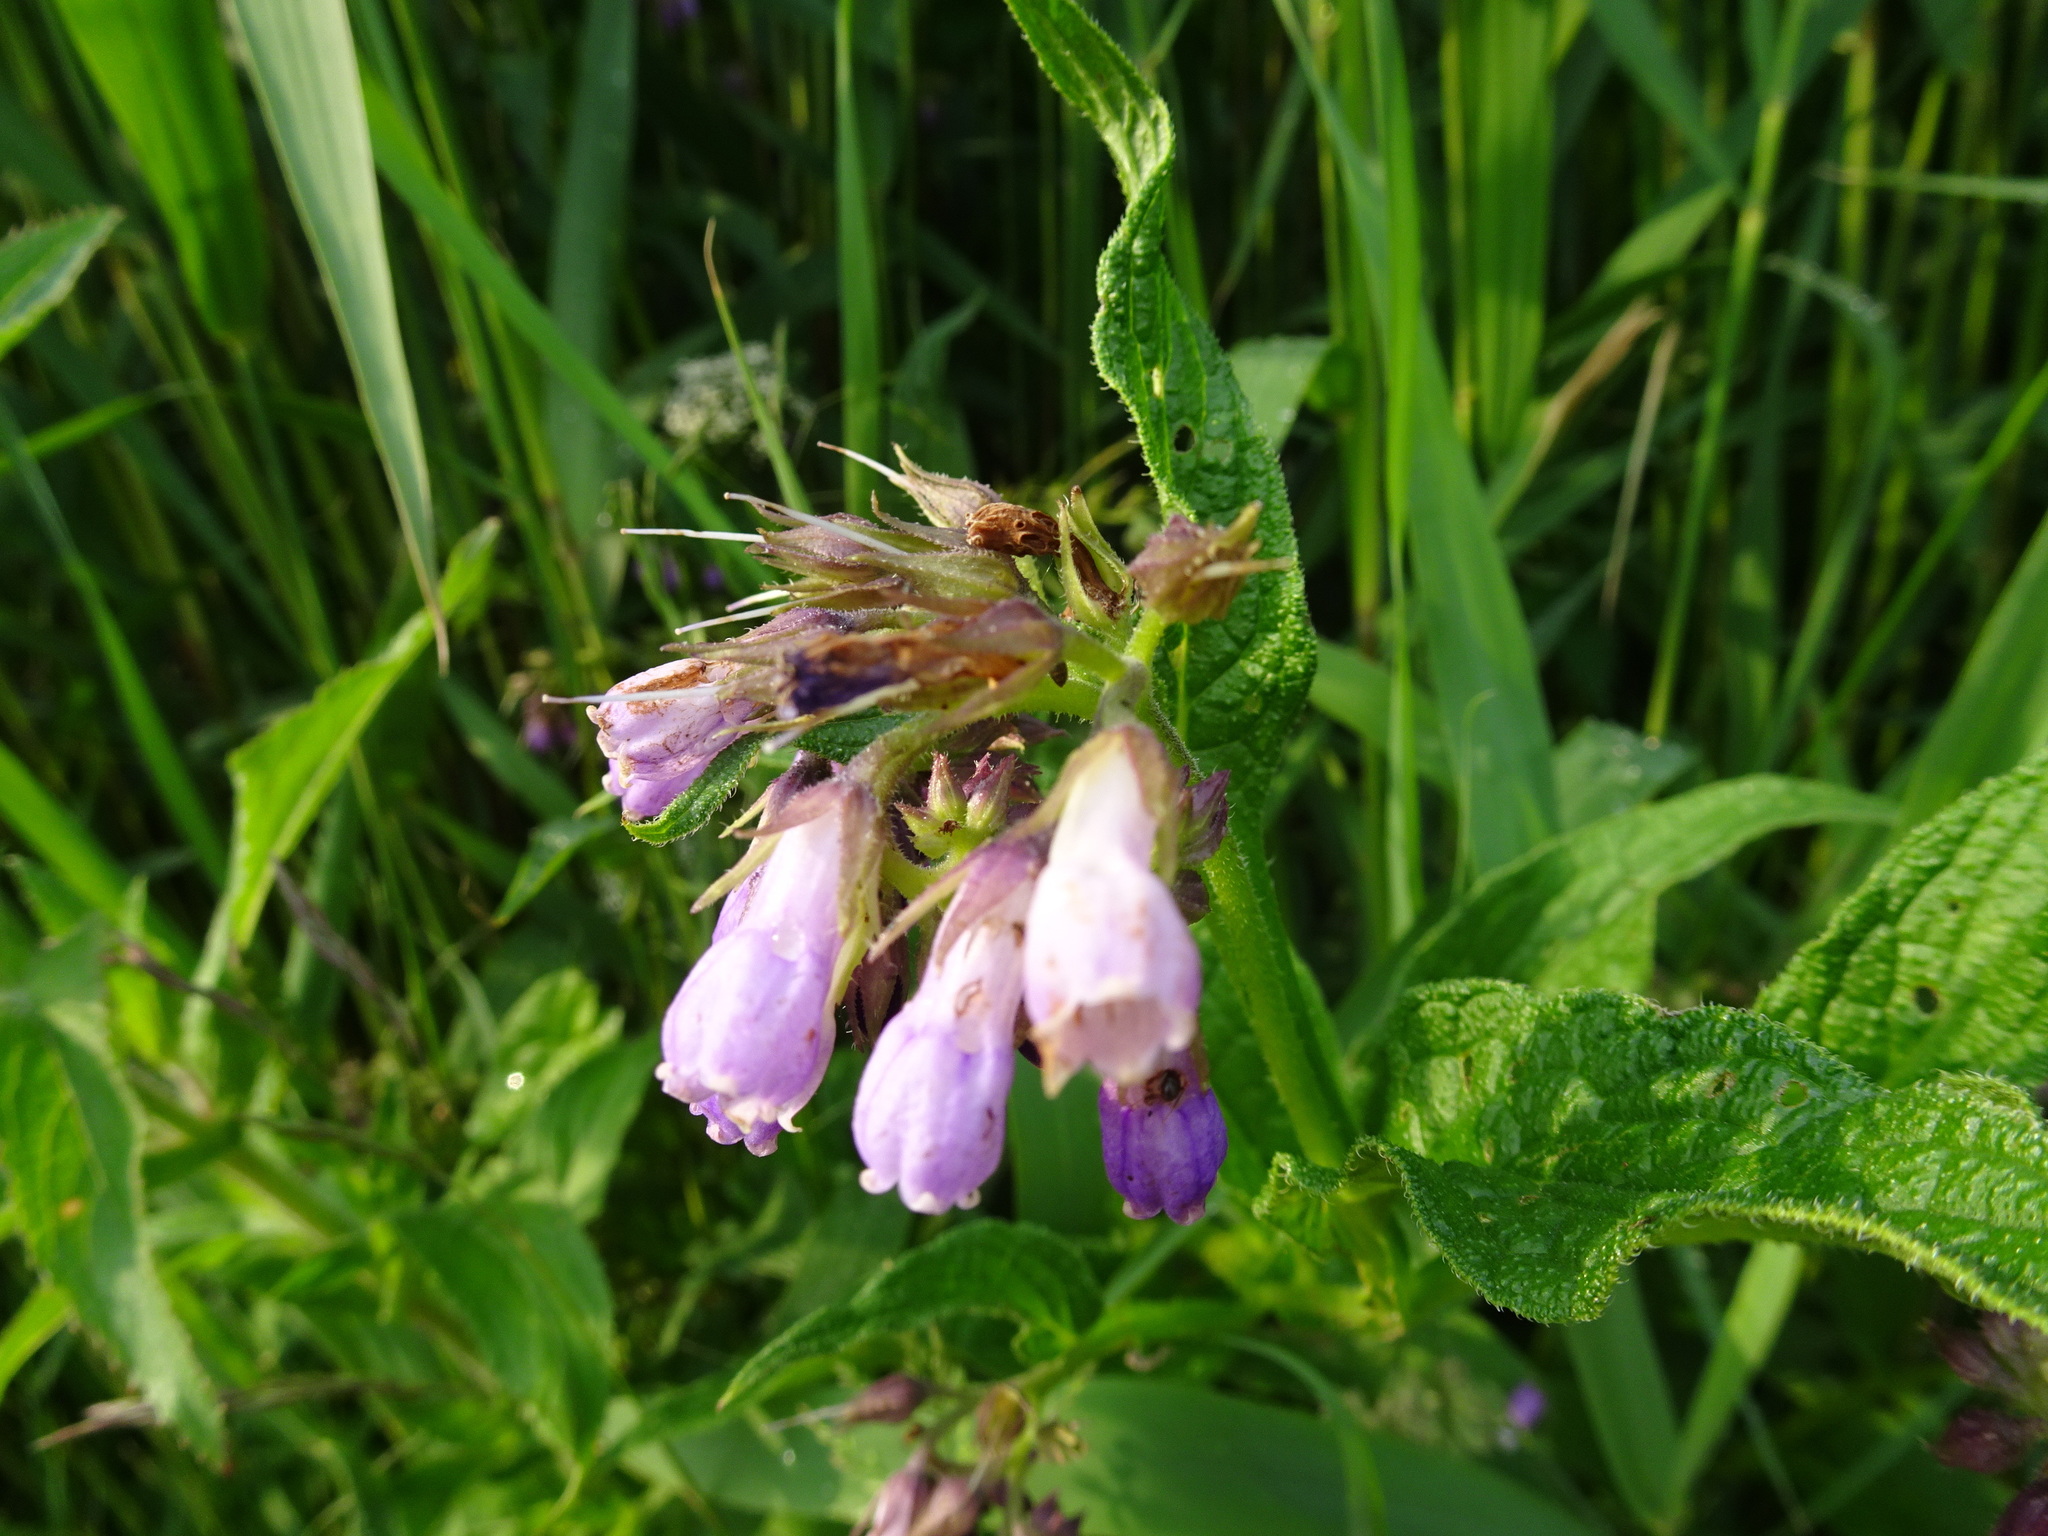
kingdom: Plantae
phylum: Tracheophyta
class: Magnoliopsida
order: Boraginales
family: Boraginaceae
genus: Symphytum
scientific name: Symphytum officinale
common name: Common comfrey
